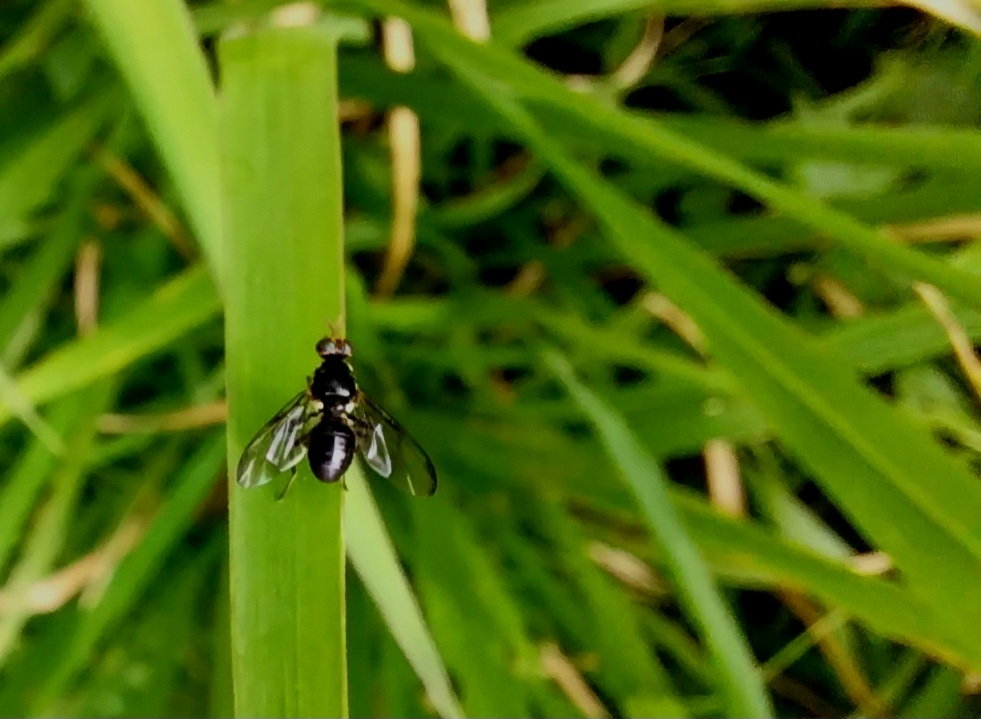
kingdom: Animalia
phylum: Arthropoda
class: Insecta
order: Diptera
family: Tephritidae
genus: Bactrocera
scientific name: Bactrocera melanotus
